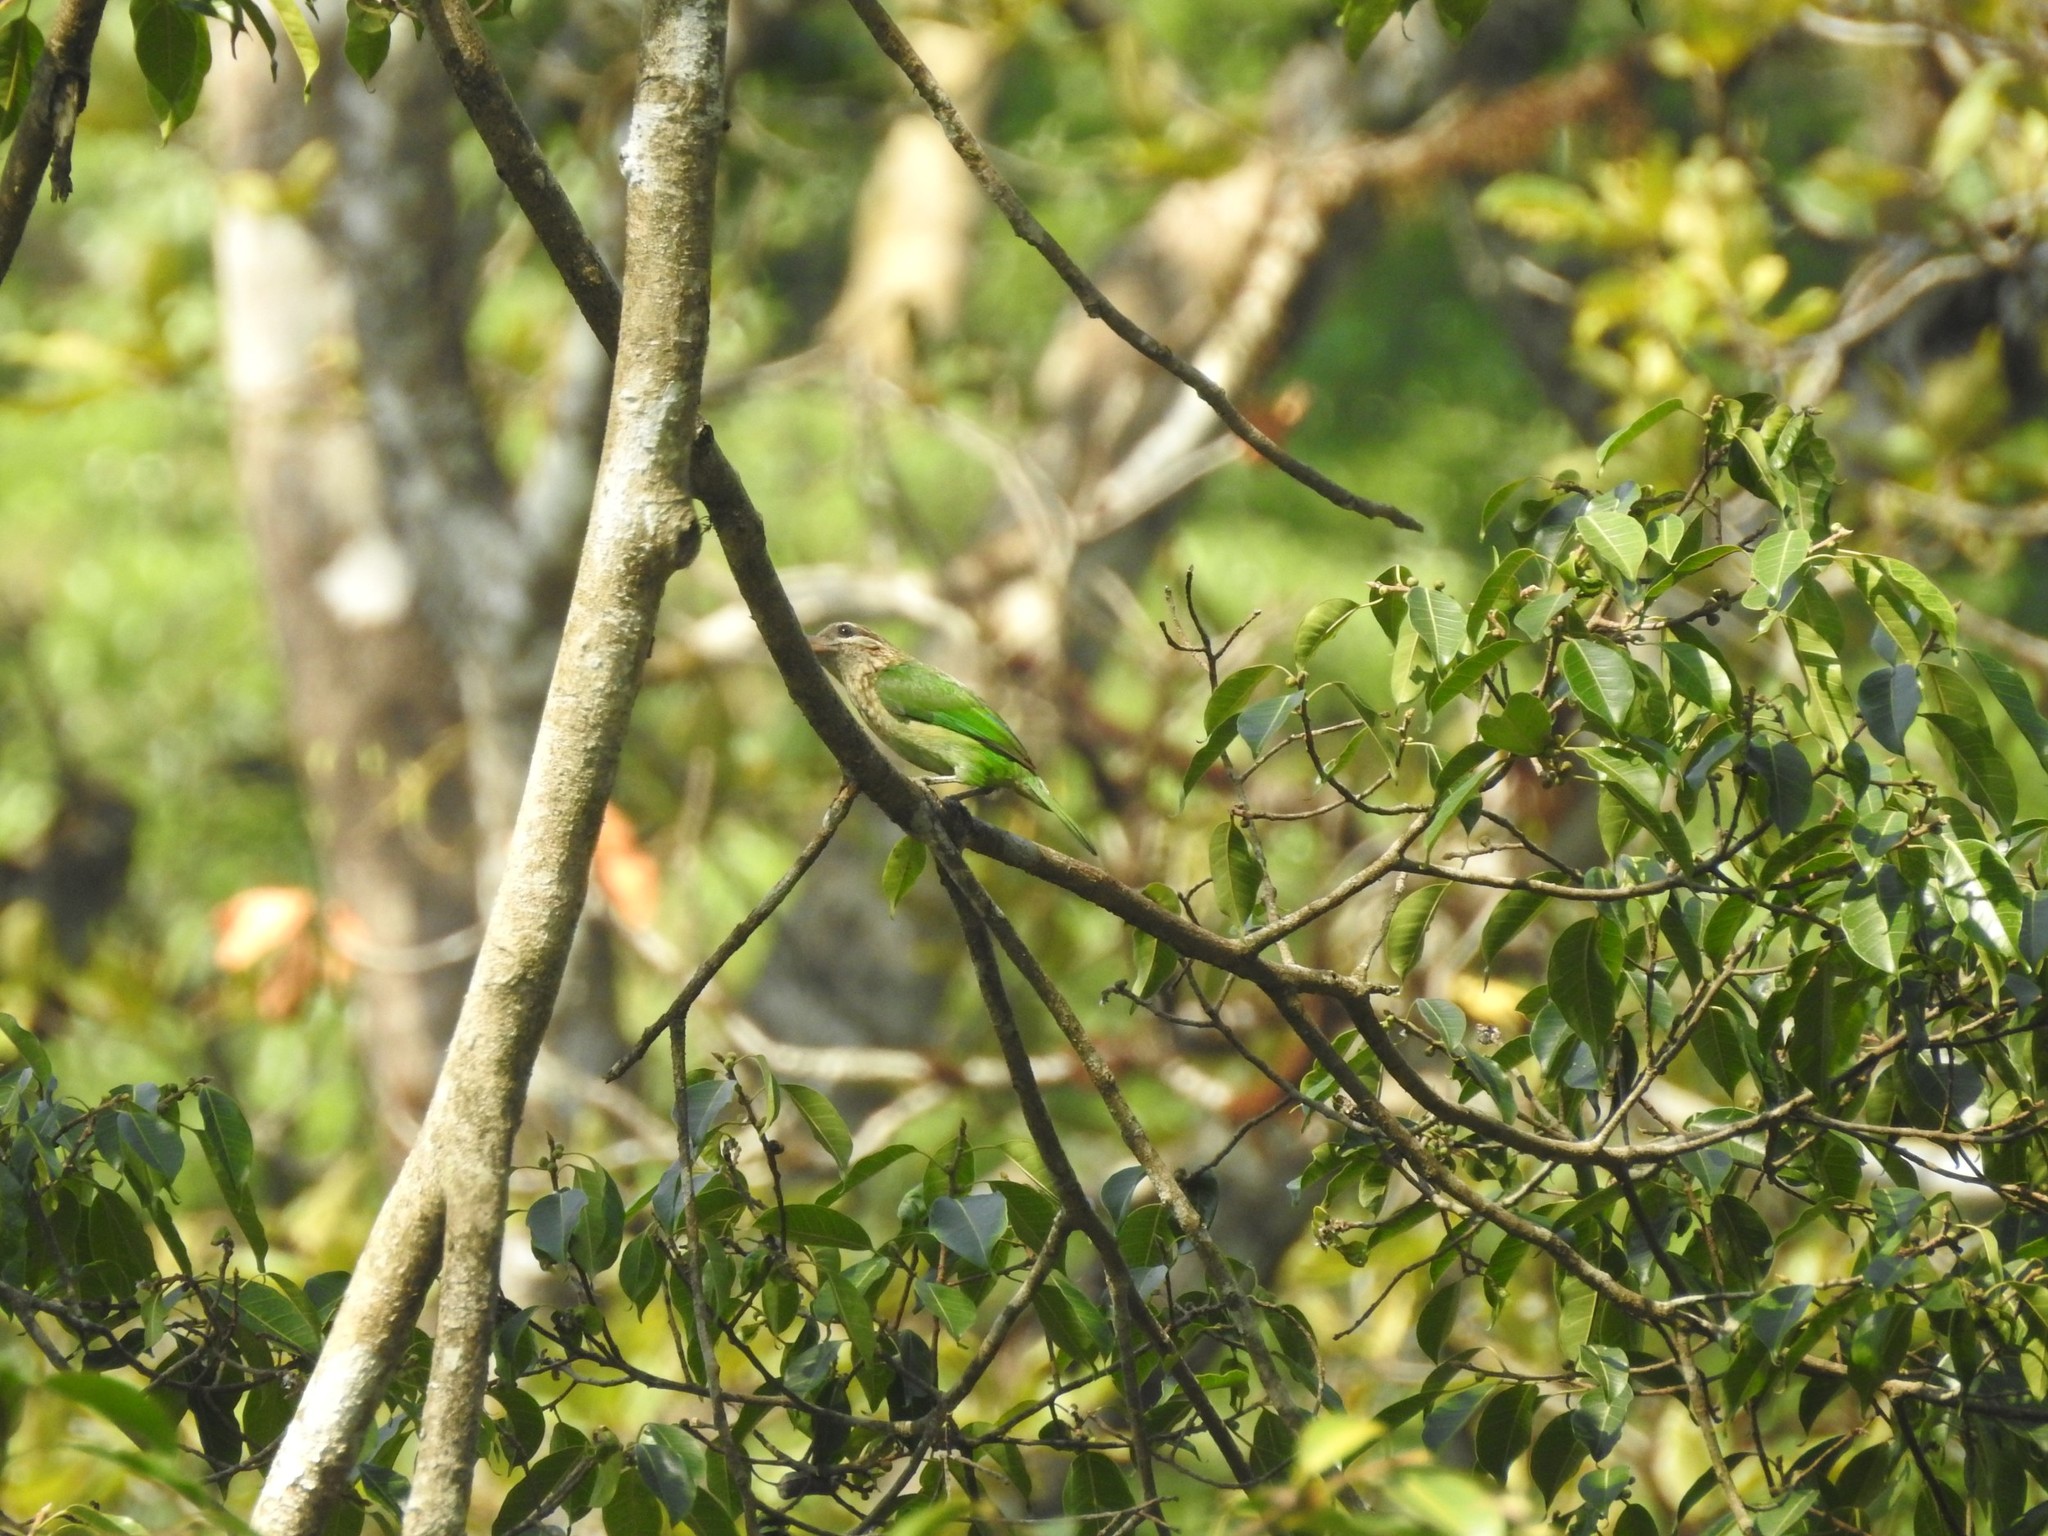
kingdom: Animalia
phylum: Chordata
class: Aves
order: Piciformes
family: Megalaimidae
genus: Psilopogon
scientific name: Psilopogon viridis
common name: White-cheeked barbet
